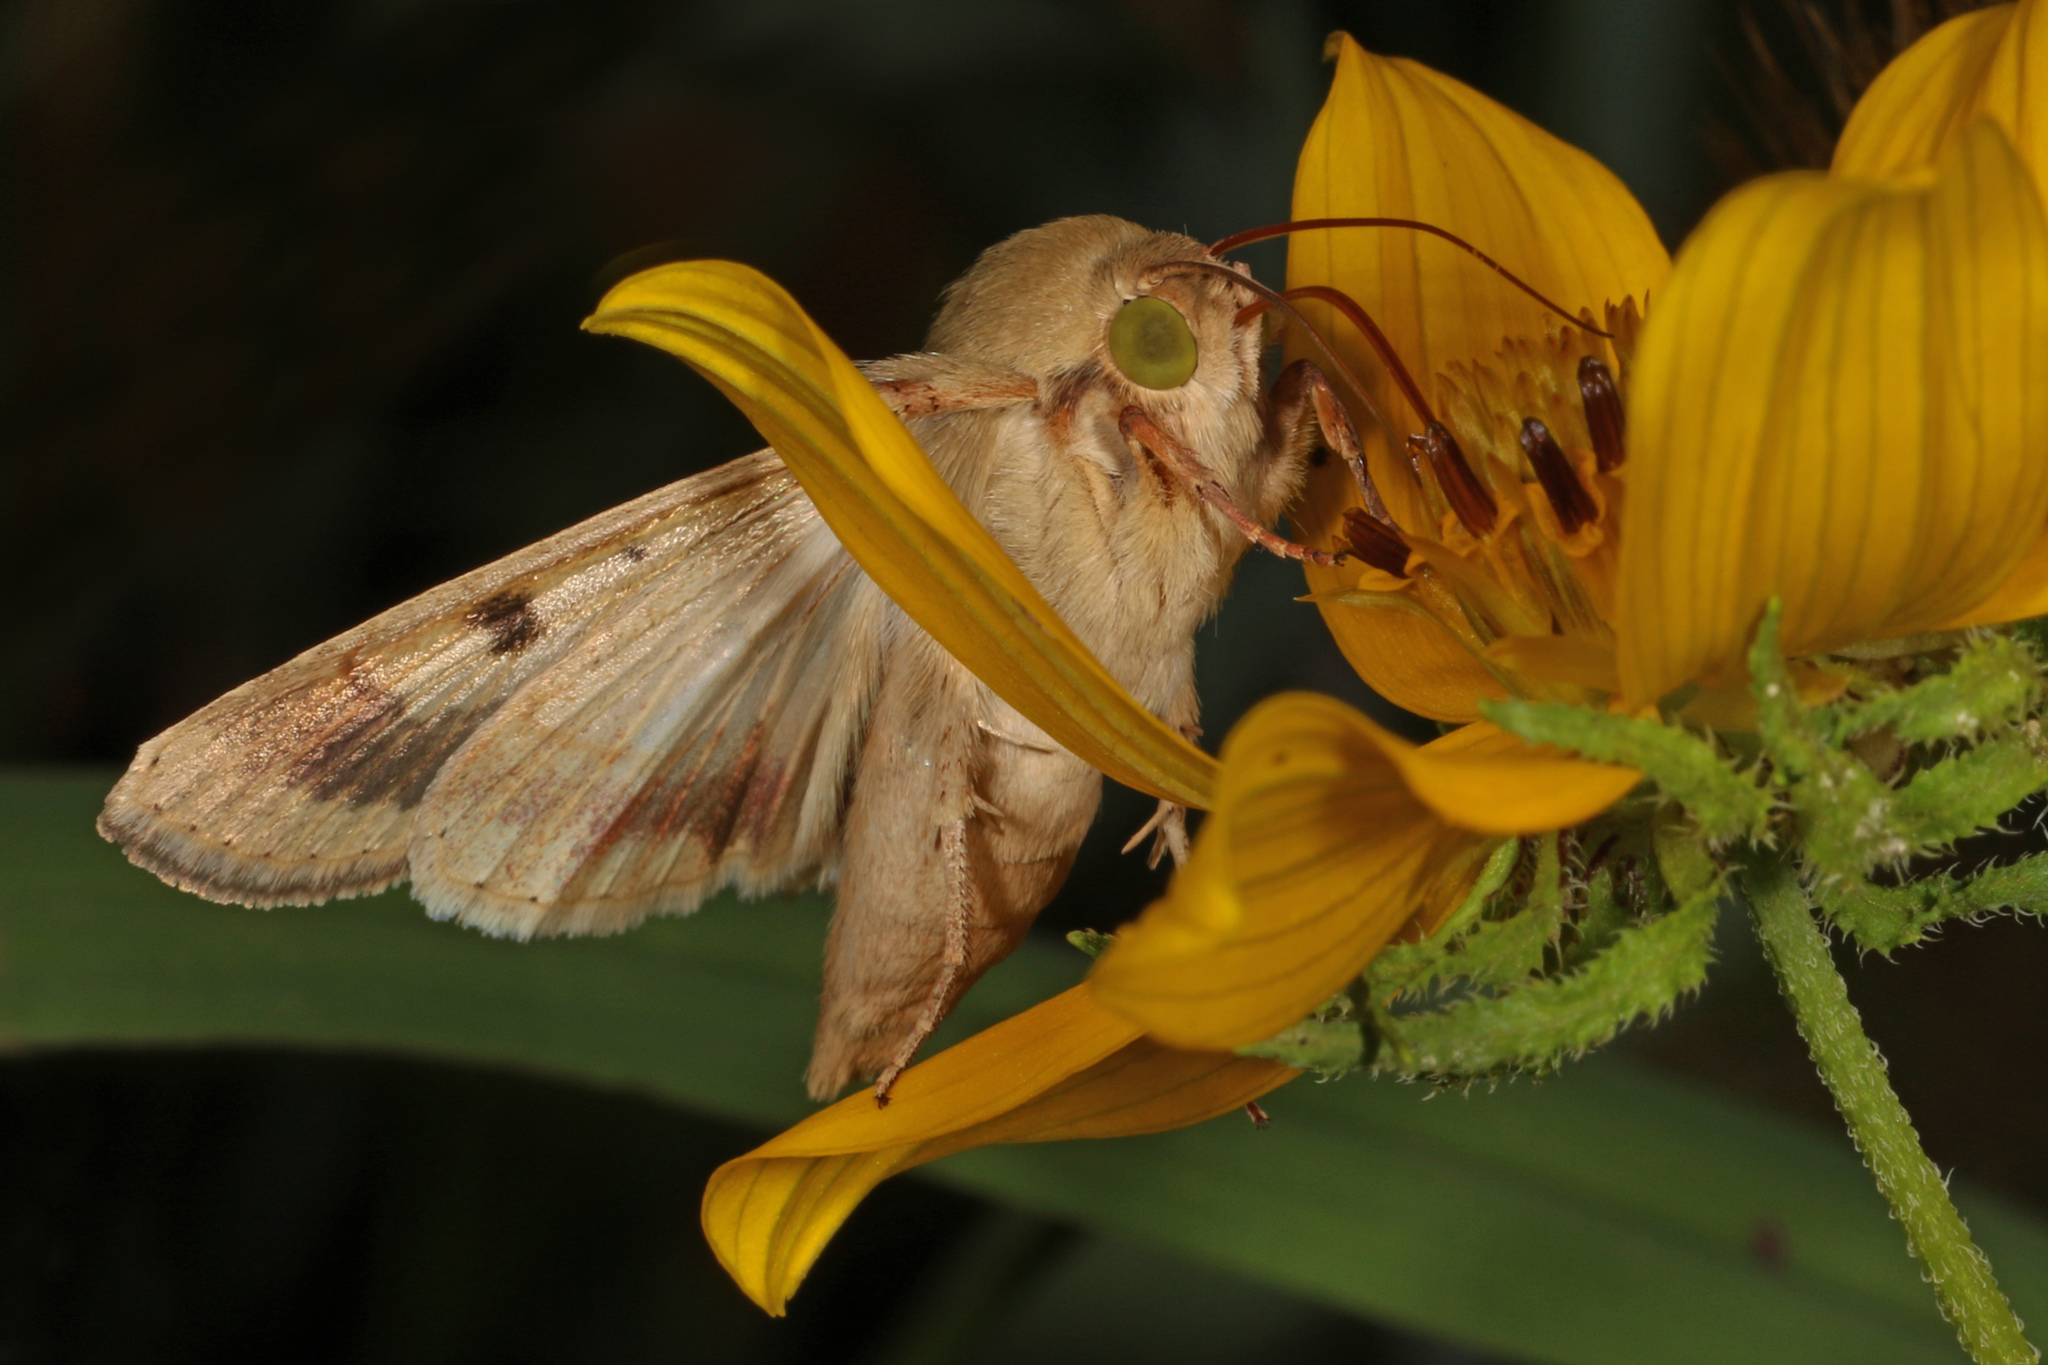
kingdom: Animalia
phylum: Arthropoda
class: Insecta
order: Lepidoptera
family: Noctuidae
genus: Helicoverpa
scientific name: Helicoverpa zea
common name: Bollworm
